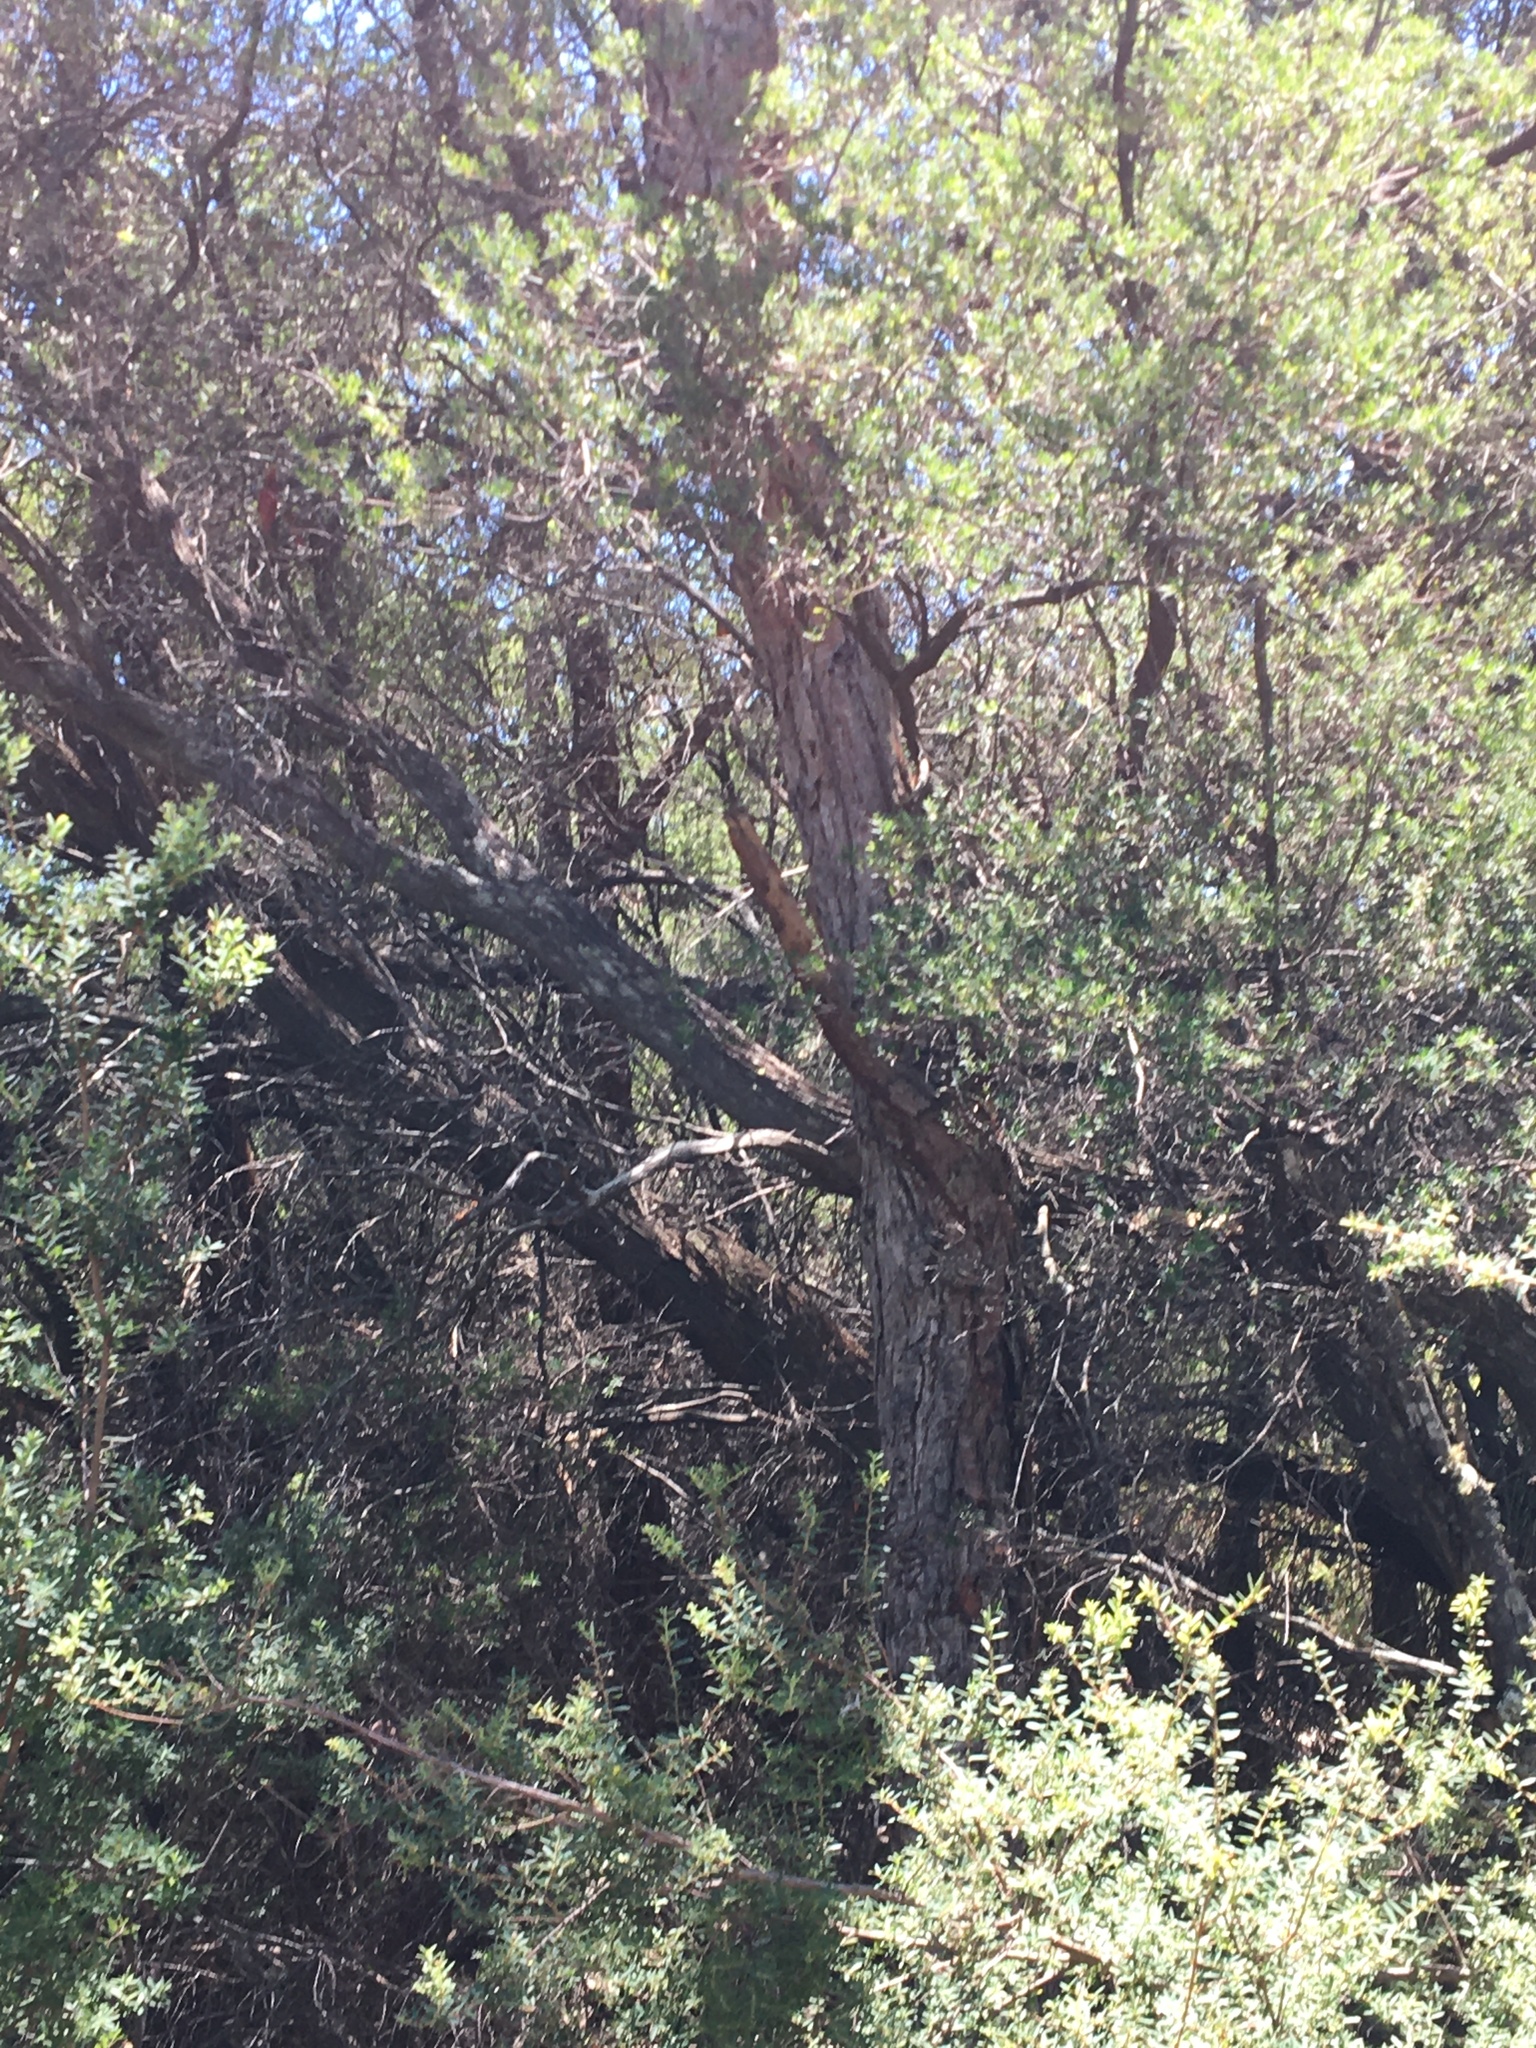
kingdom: Plantae
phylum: Tracheophyta
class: Magnoliopsida
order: Myrtales
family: Myrtaceae
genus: Eucalyptus
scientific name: Eucalyptus robusta
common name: Swampmahogany
